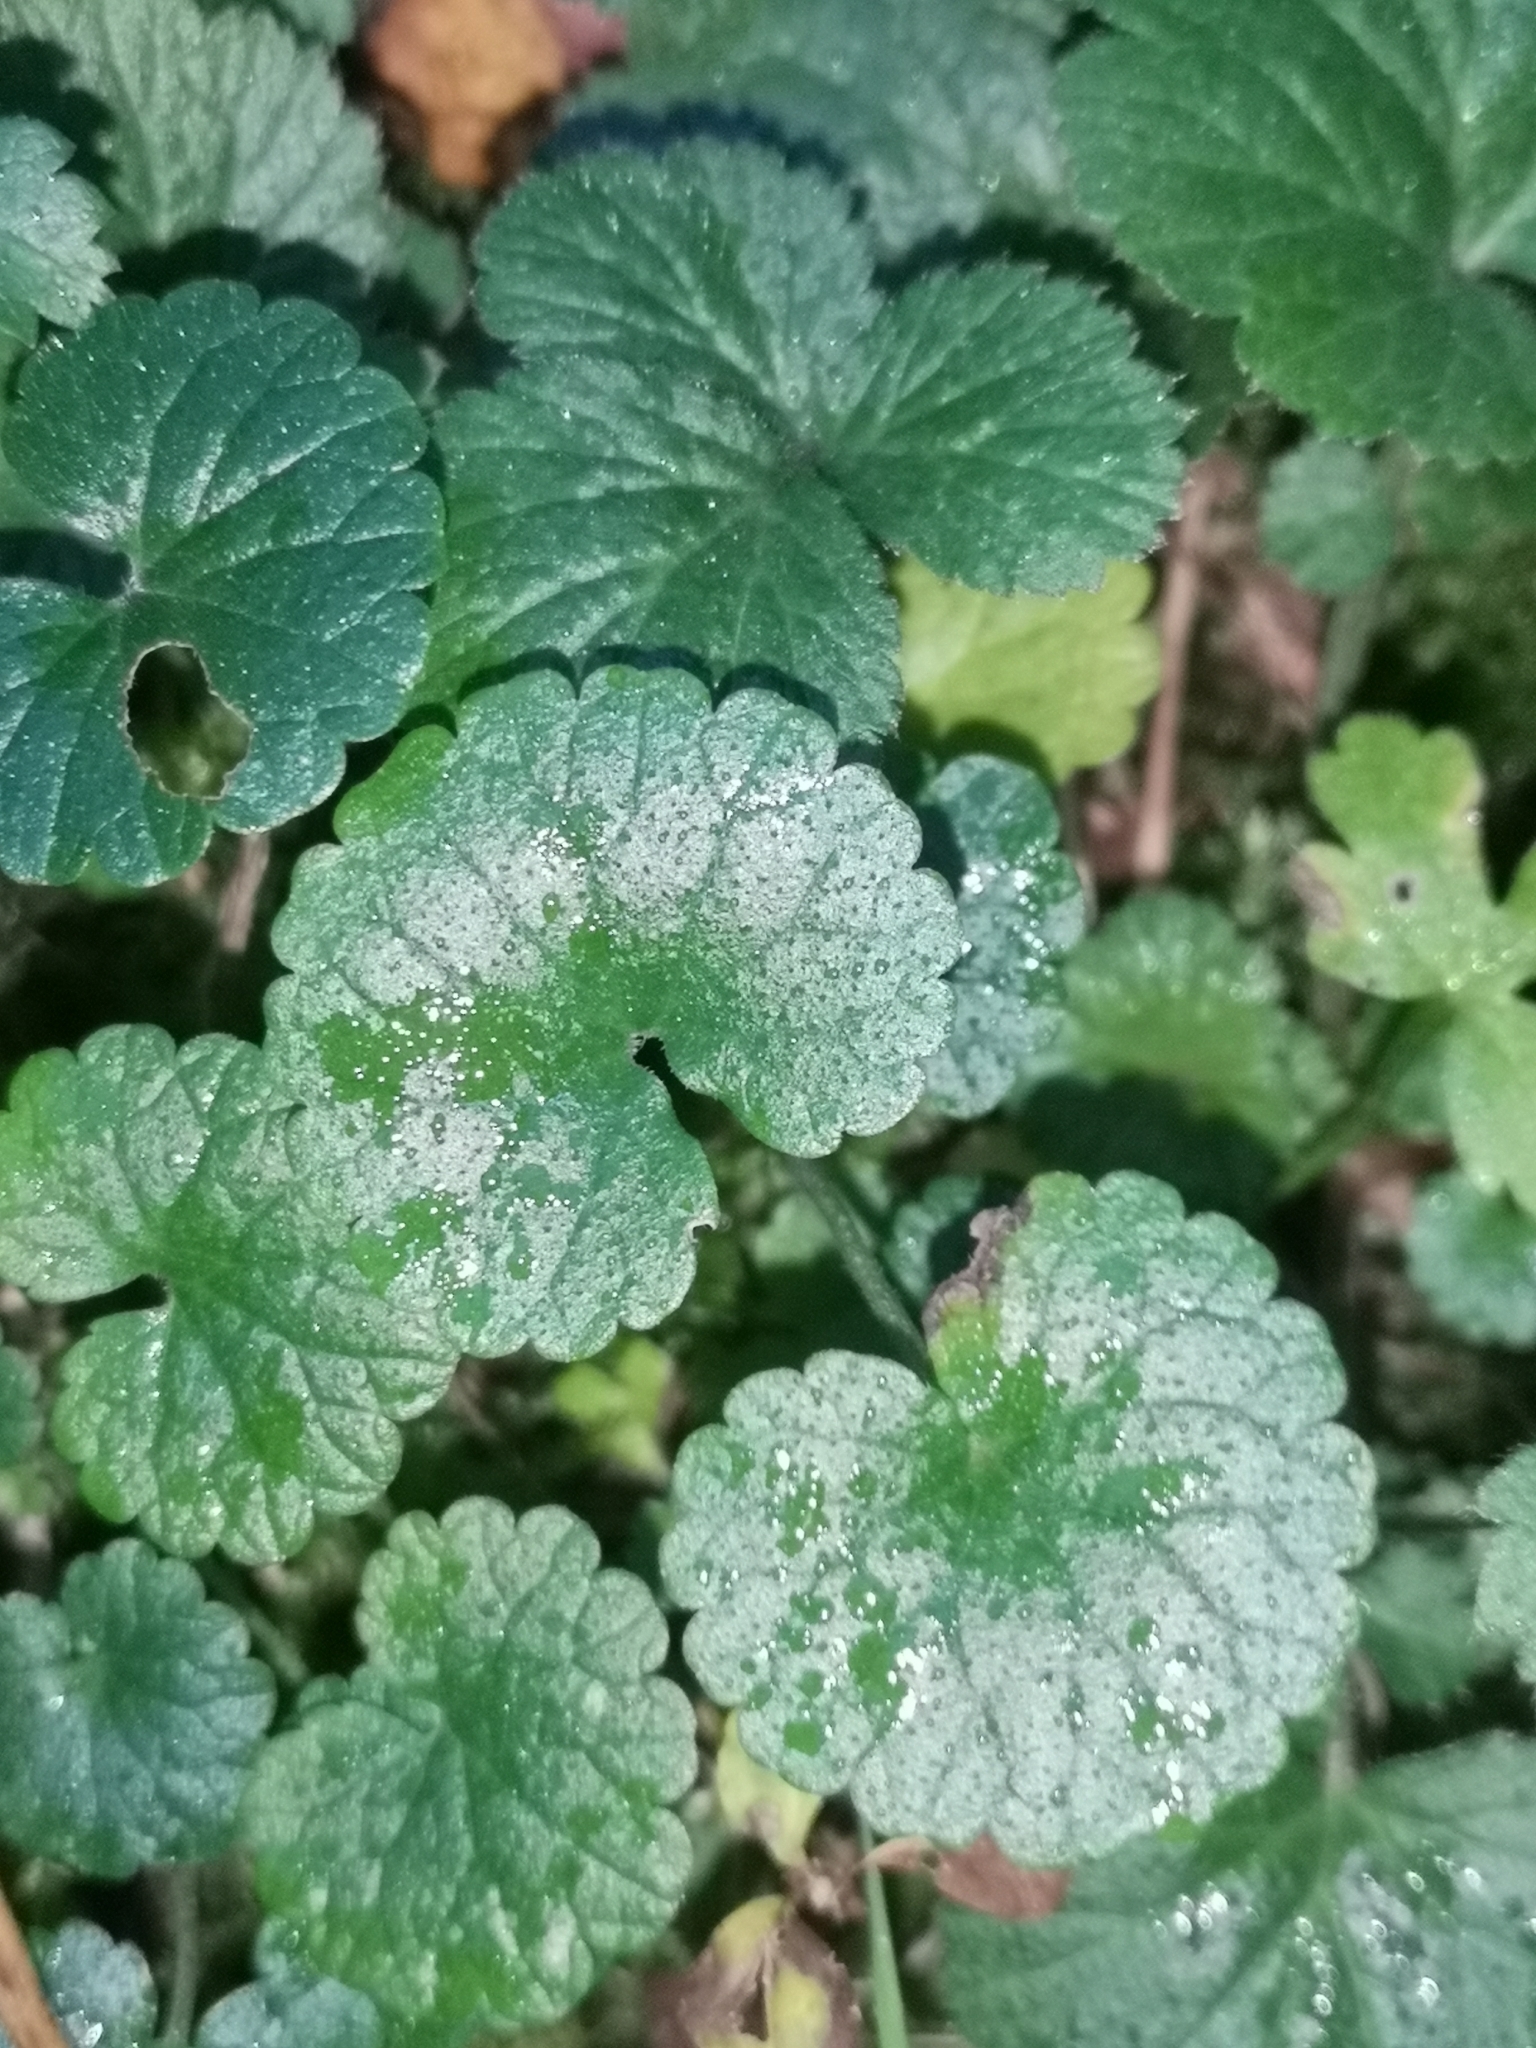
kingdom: Plantae
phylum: Tracheophyta
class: Magnoliopsida
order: Lamiales
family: Lamiaceae
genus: Glechoma
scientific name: Glechoma hederacea
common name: Ground ivy
